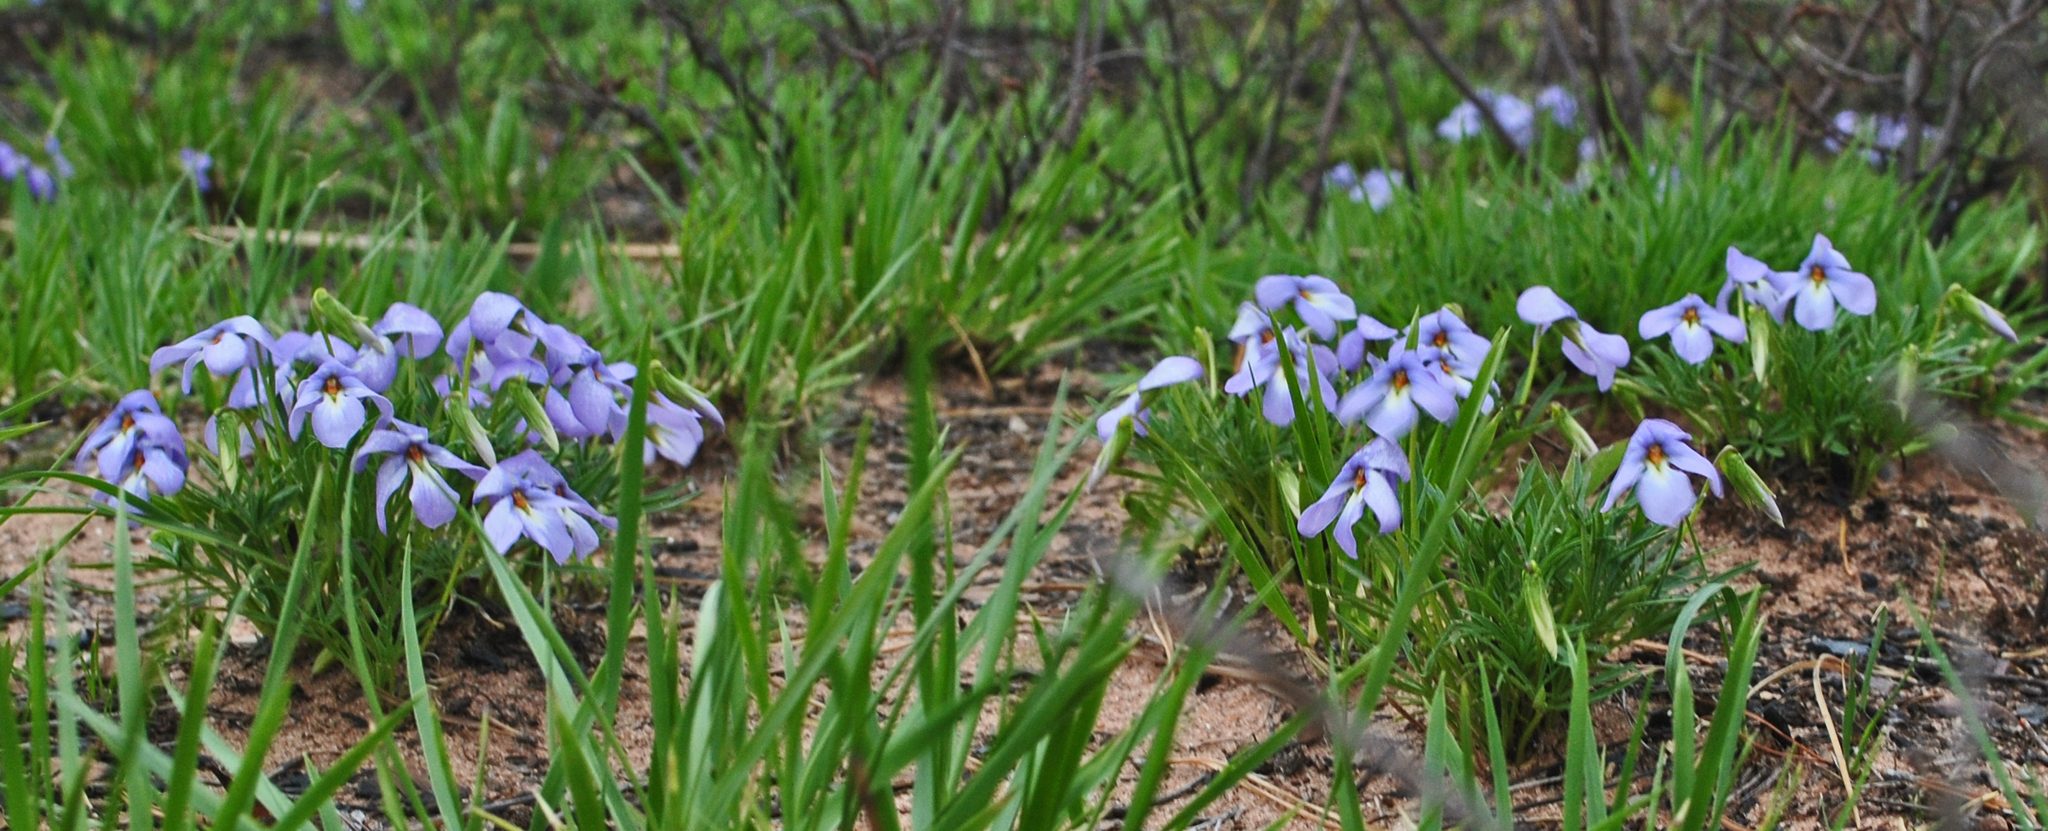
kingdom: Plantae
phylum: Tracheophyta
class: Magnoliopsida
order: Malpighiales
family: Violaceae
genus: Viola
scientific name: Viola pedata
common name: Pansy violet
